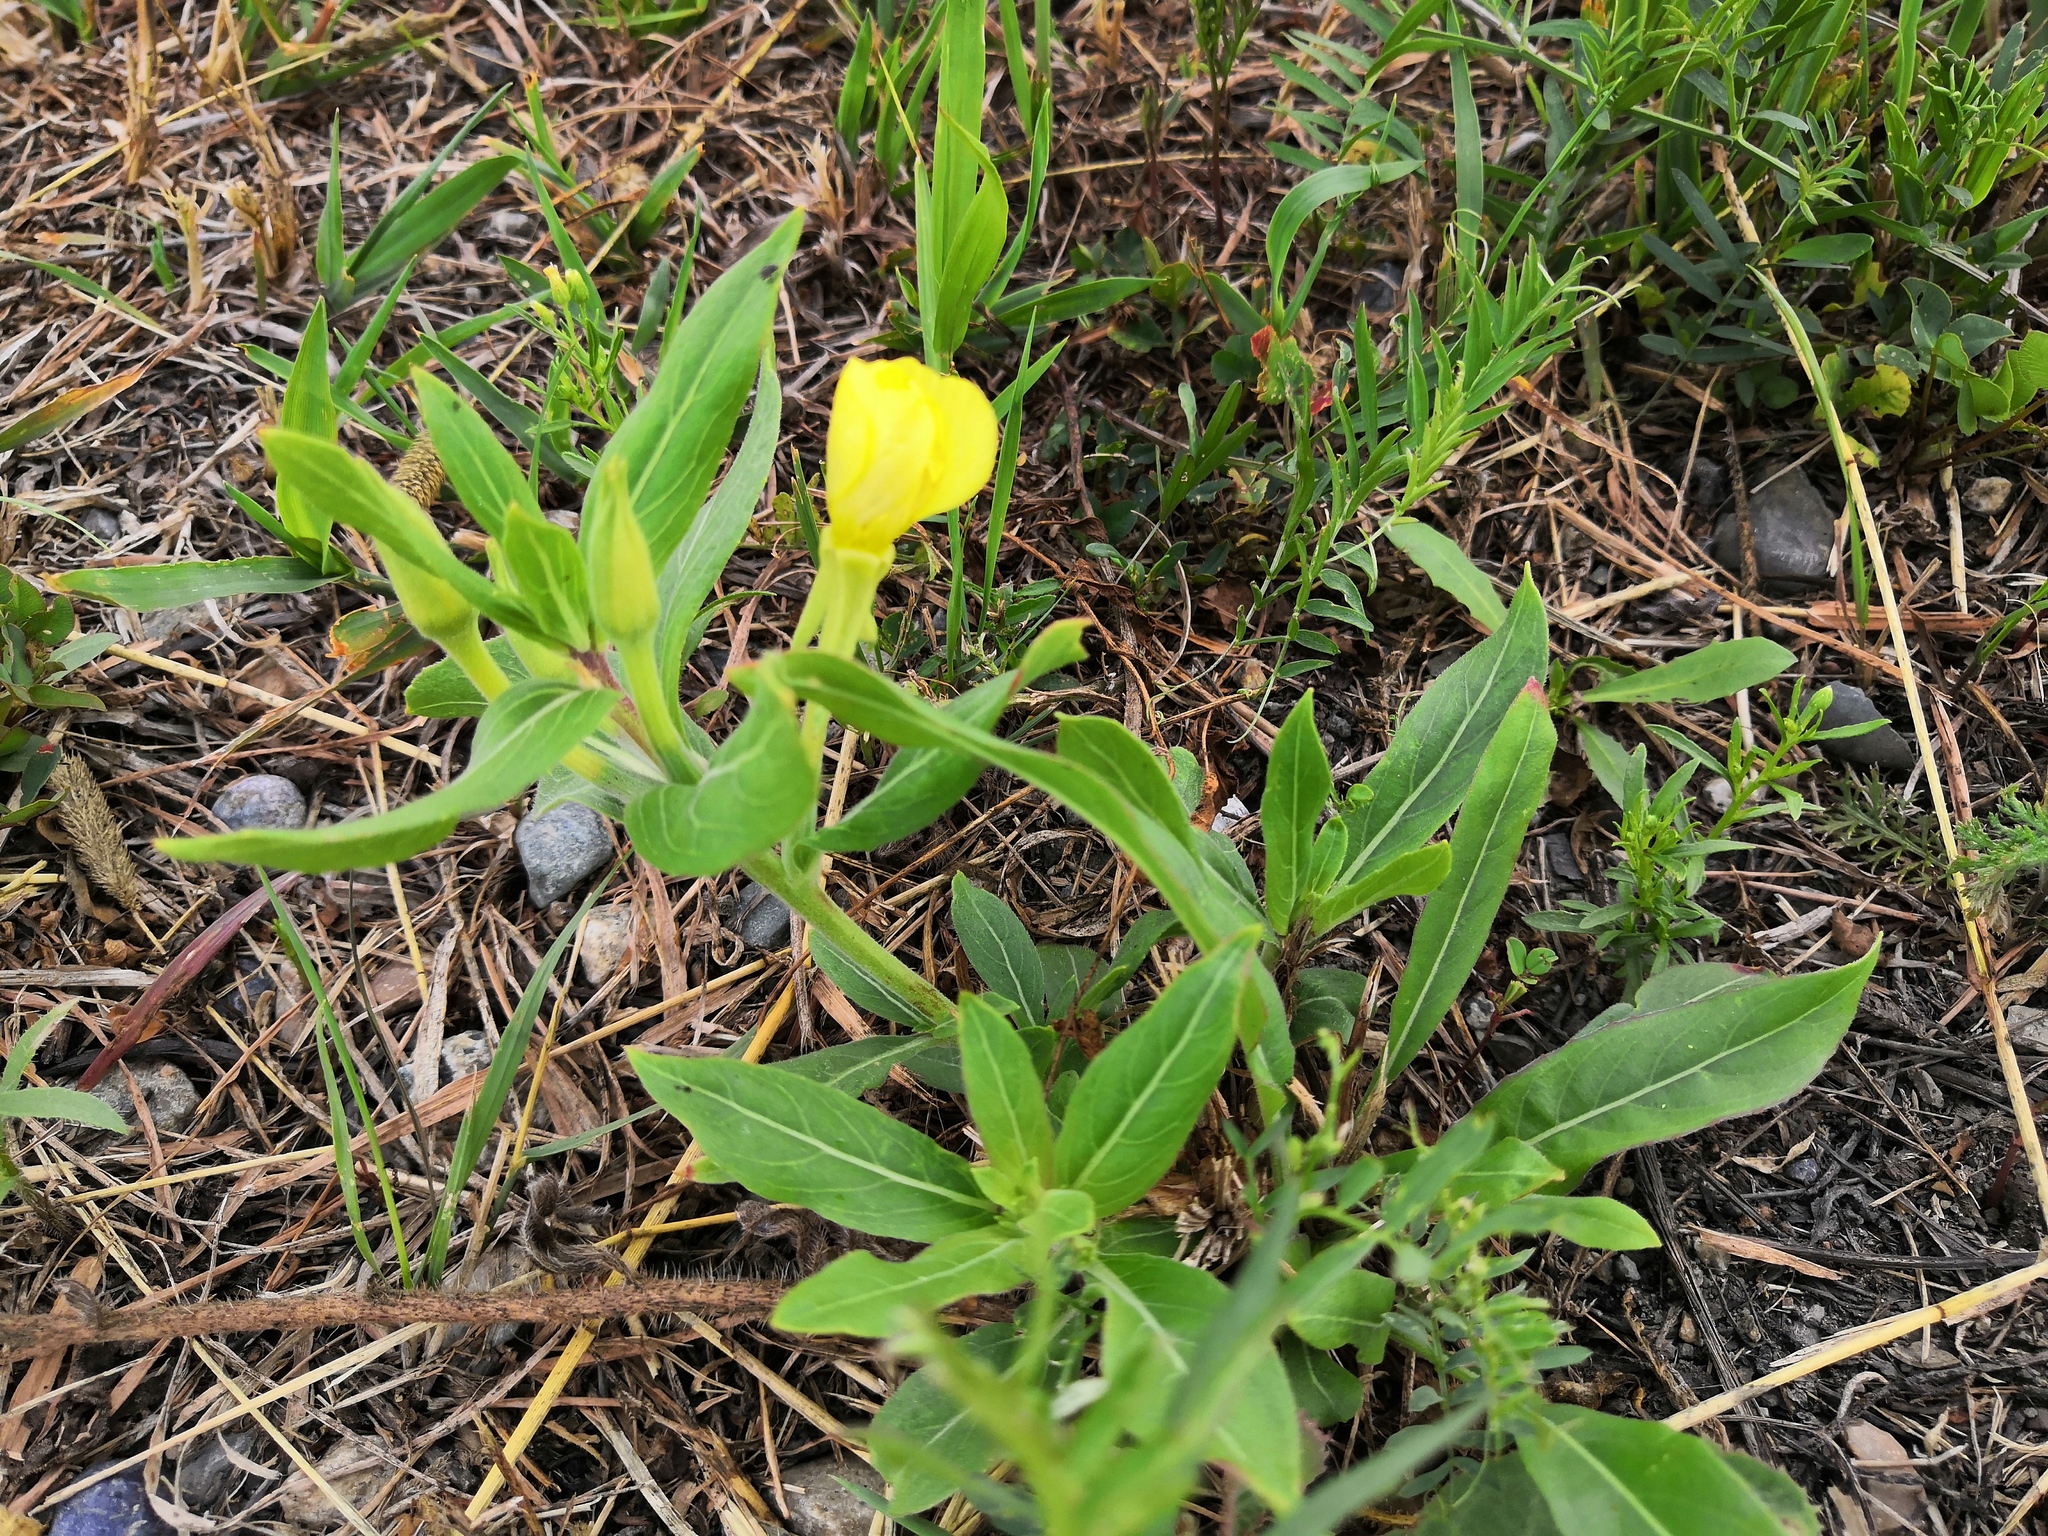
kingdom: Plantae
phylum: Tracheophyta
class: Magnoliopsida
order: Myrtales
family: Onagraceae
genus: Oenothera
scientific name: Oenothera
